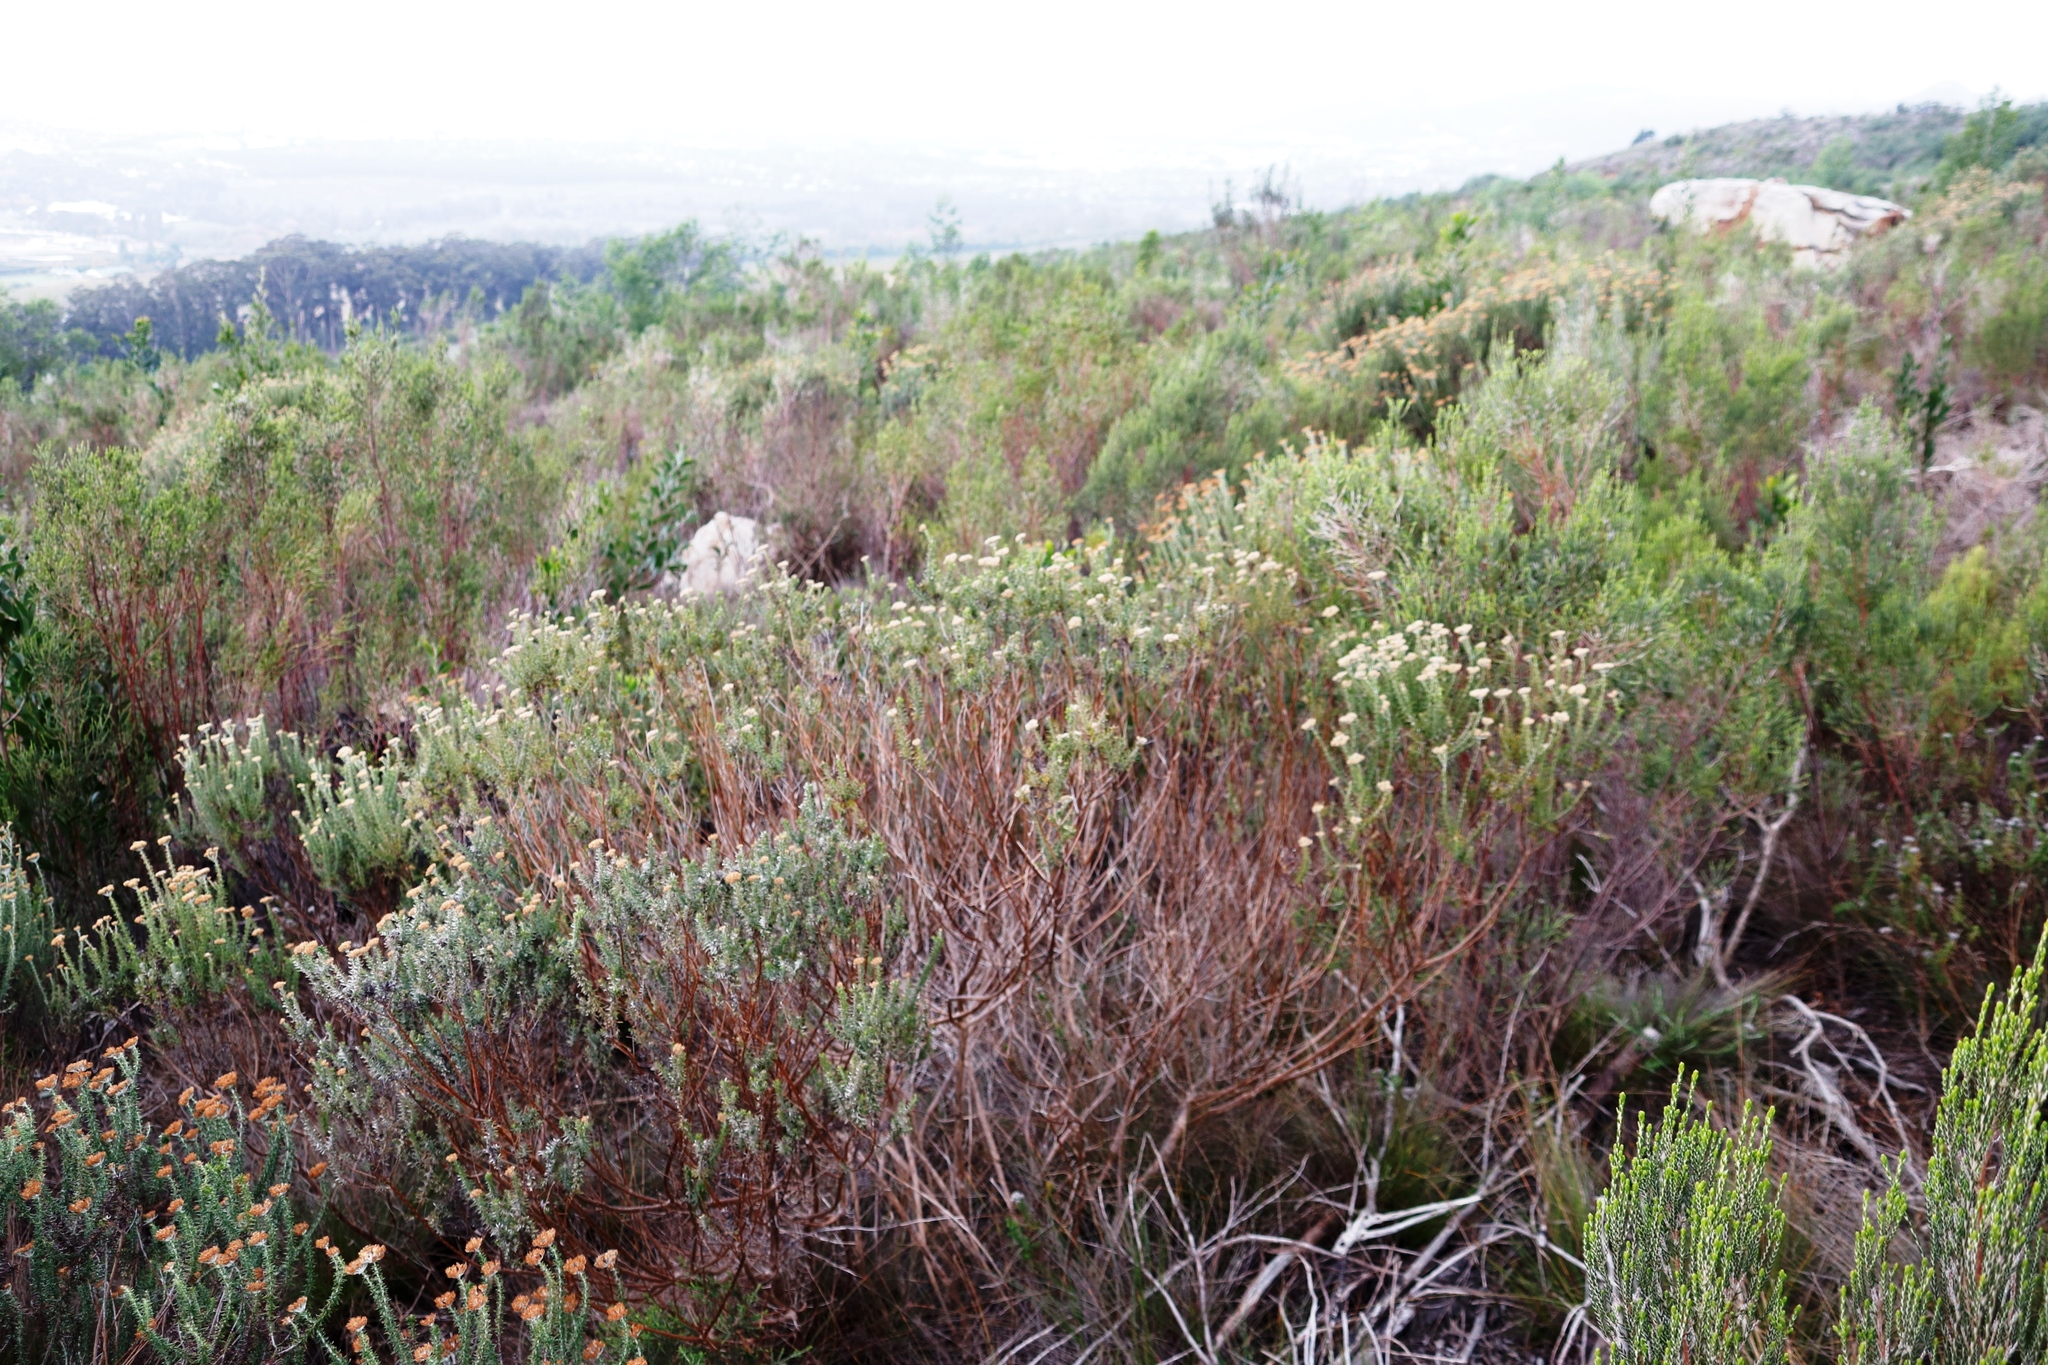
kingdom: Plantae
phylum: Tracheophyta
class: Magnoliopsida
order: Asterales
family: Asteraceae
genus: Metalasia
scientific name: Metalasia densa
